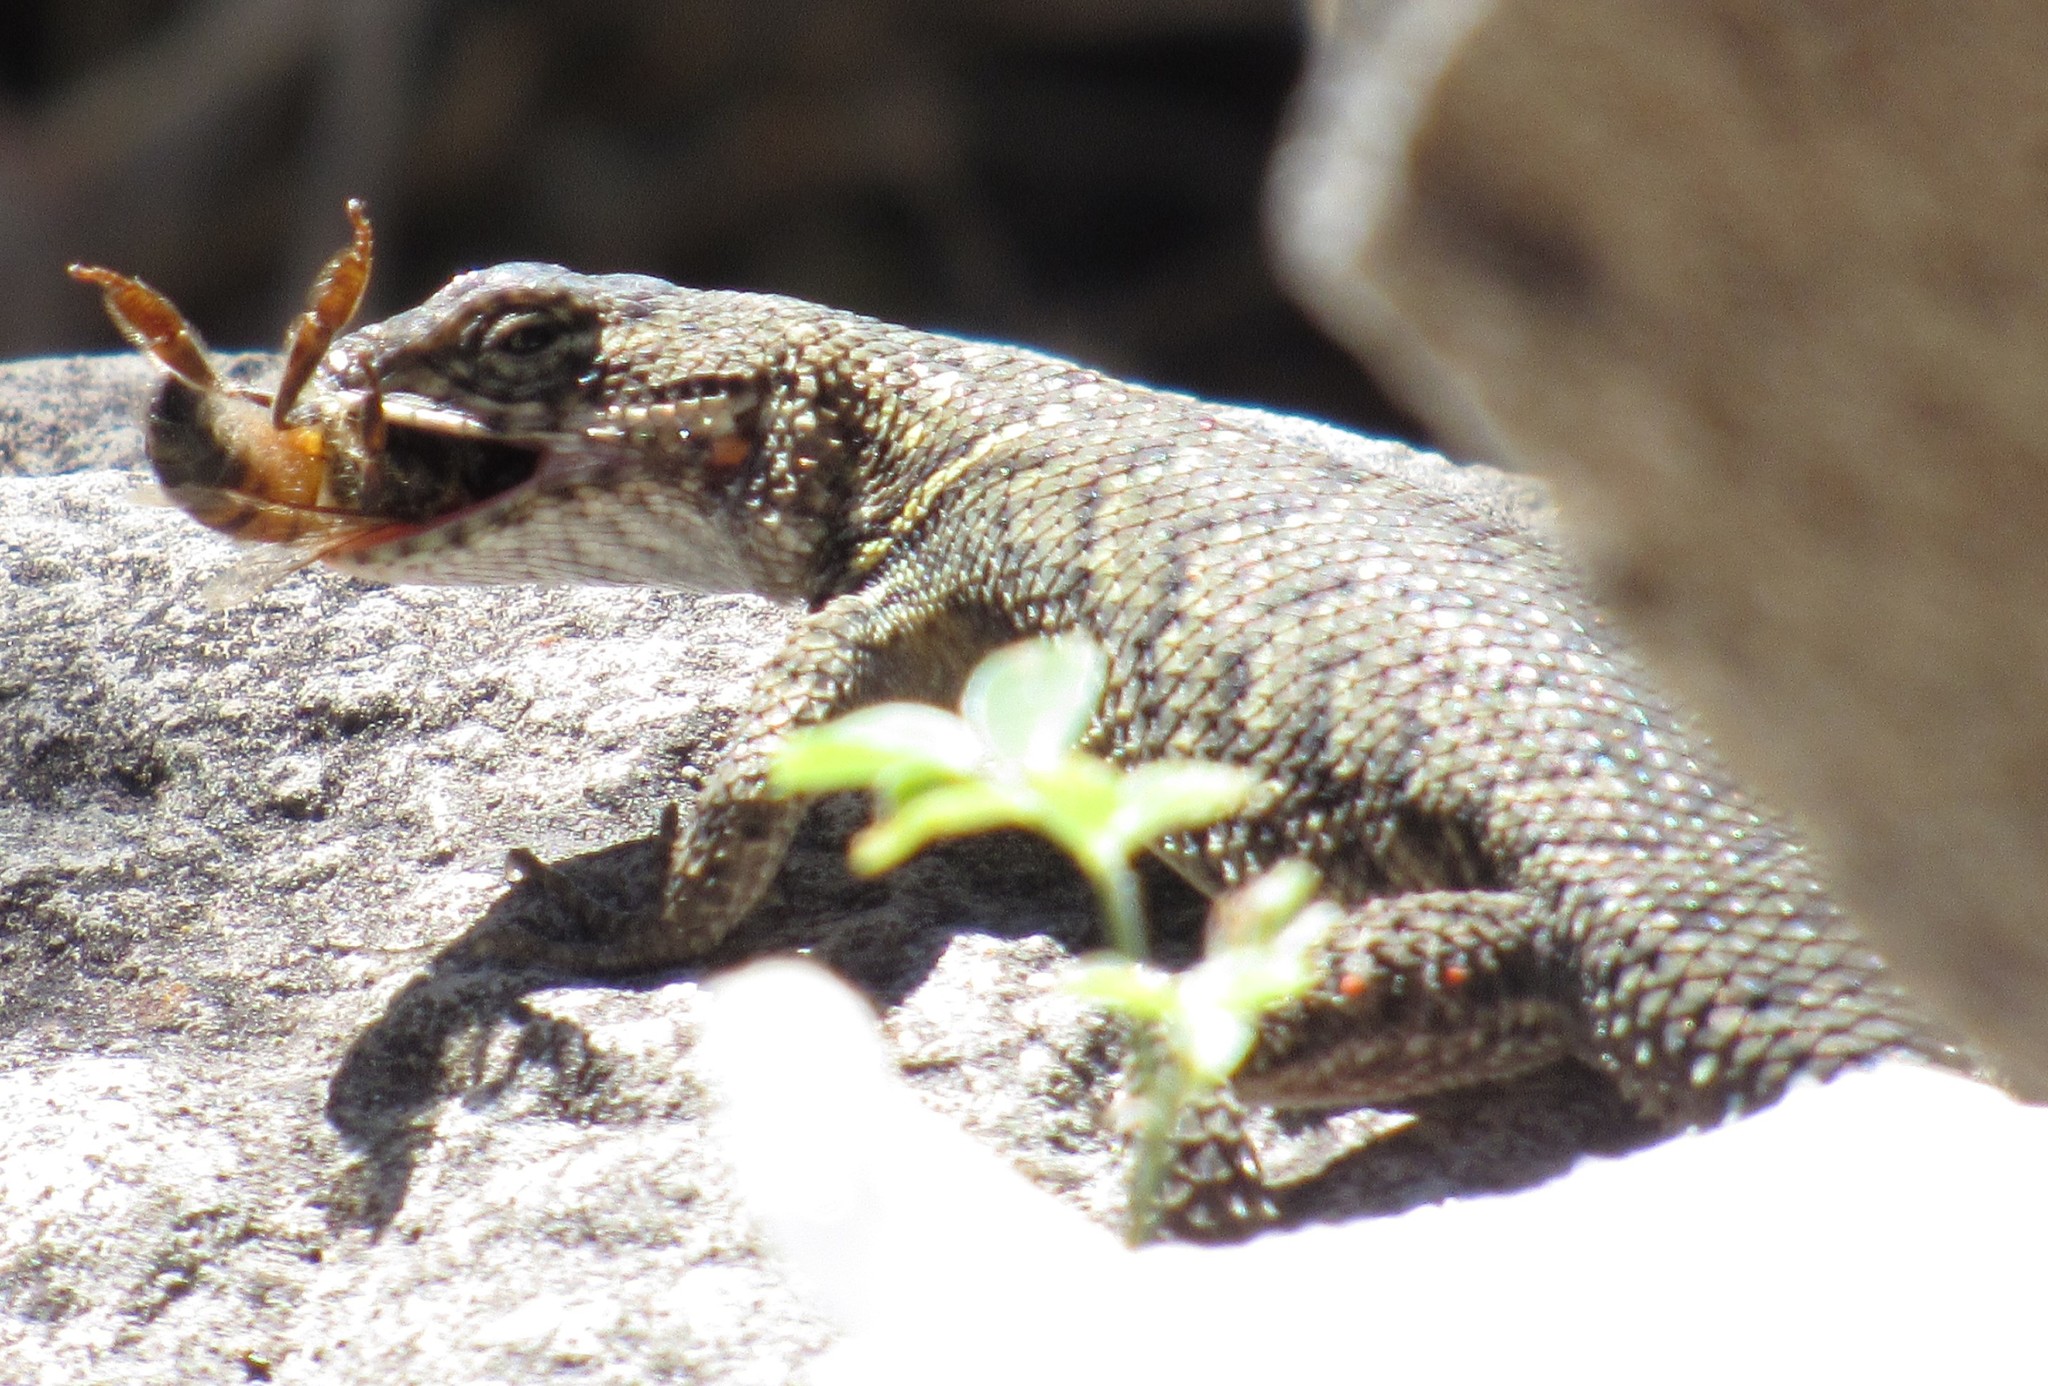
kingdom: Animalia
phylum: Chordata
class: Squamata
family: Phrynosomatidae
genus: Sceloporus
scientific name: Sceloporus dugesii
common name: Duges' spiny lizard
